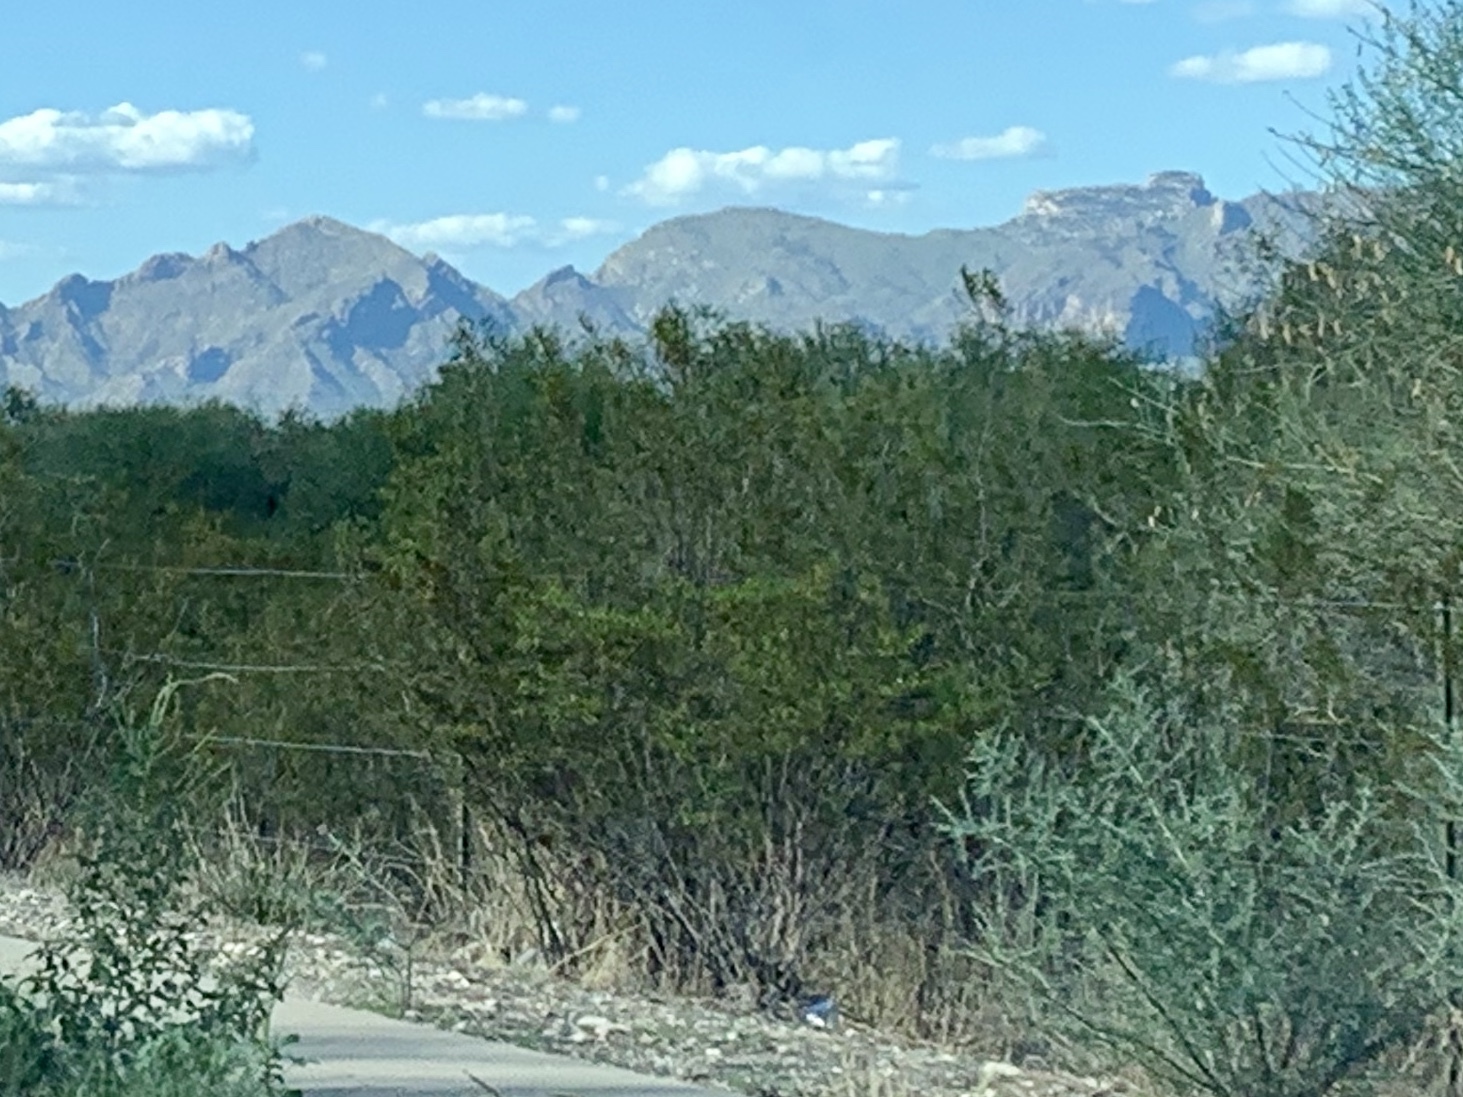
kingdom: Plantae
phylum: Tracheophyta
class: Magnoliopsida
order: Zygophyllales
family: Zygophyllaceae
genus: Larrea
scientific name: Larrea tridentata
